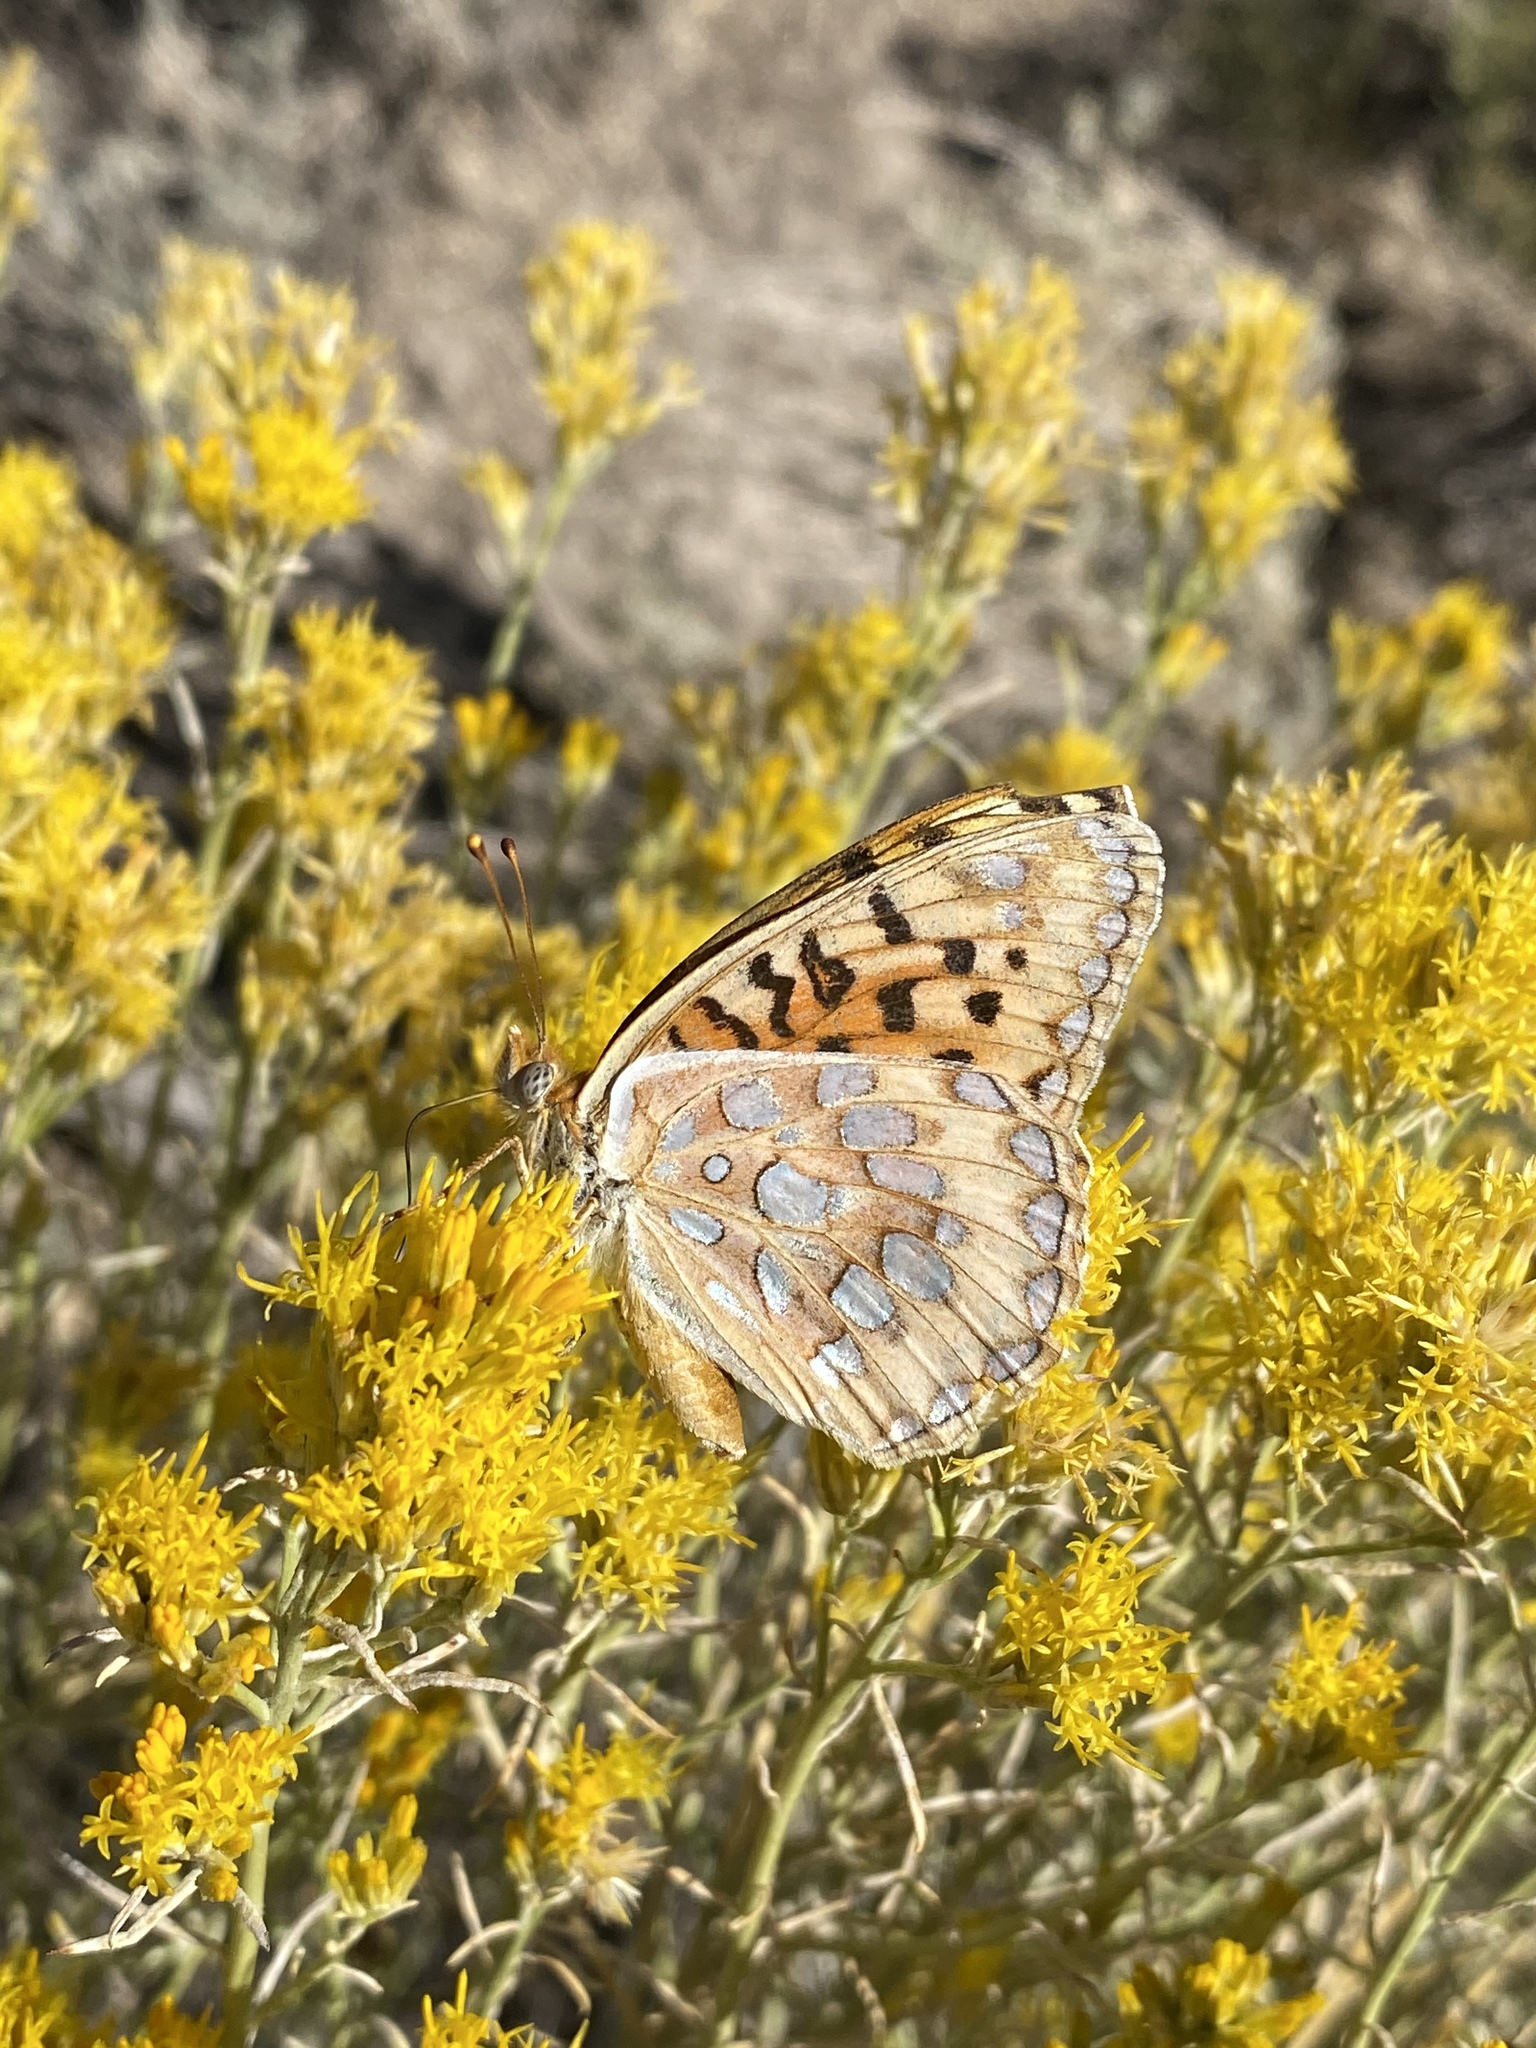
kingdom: Animalia
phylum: Arthropoda
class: Insecta
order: Lepidoptera
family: Nymphalidae
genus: Speyeria
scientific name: Speyeria zerene
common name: Zerene fritillary
